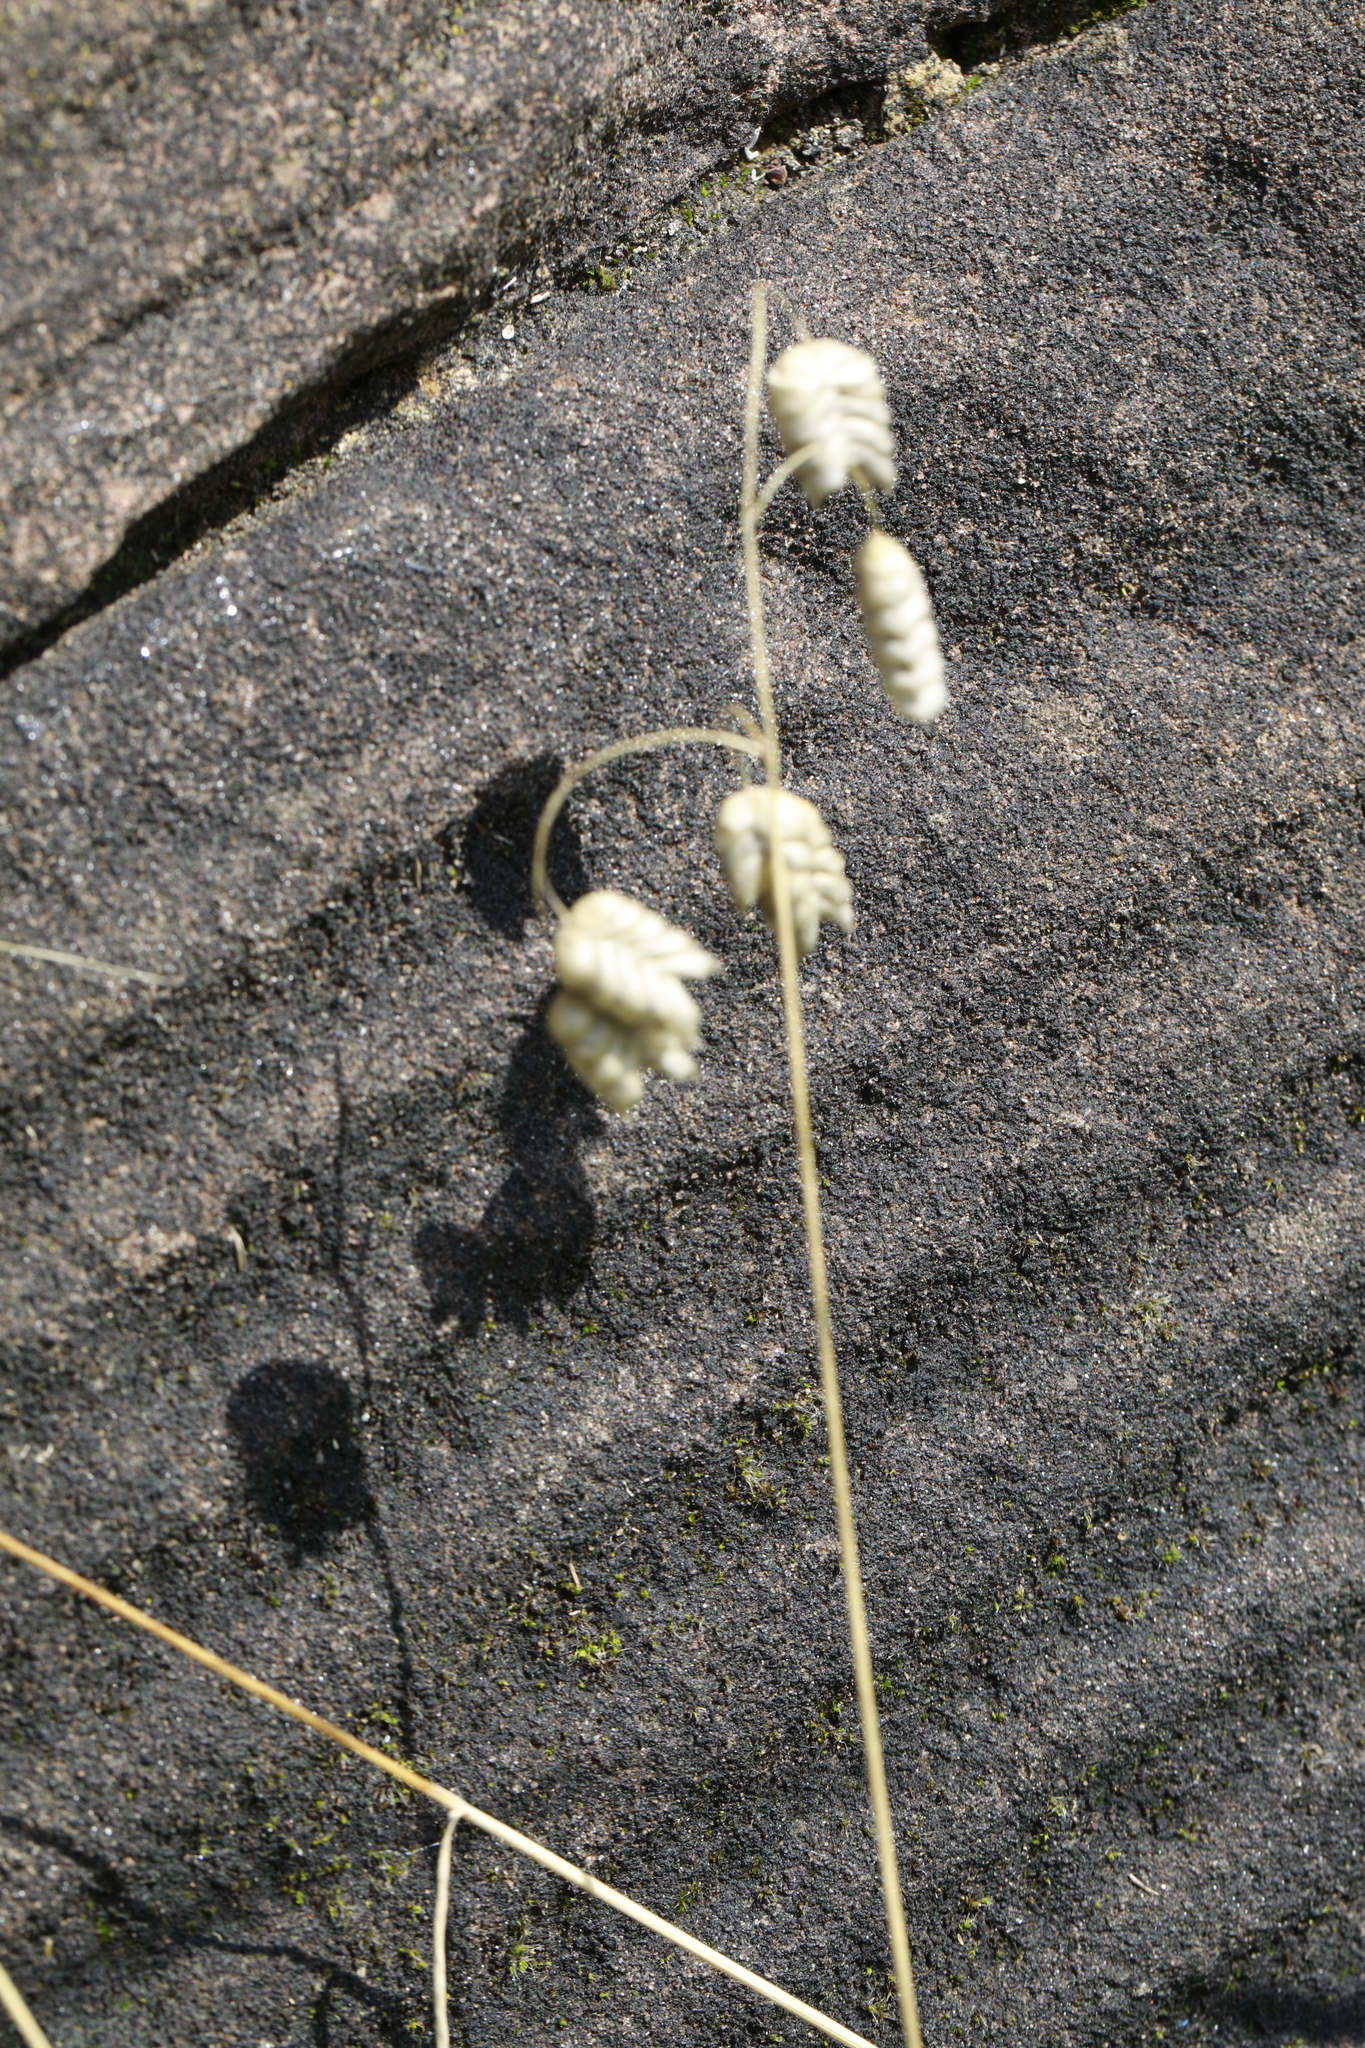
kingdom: Plantae
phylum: Tracheophyta
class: Liliopsida
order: Poales
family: Poaceae
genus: Briza
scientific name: Briza maxima
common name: Big quakinggrass
